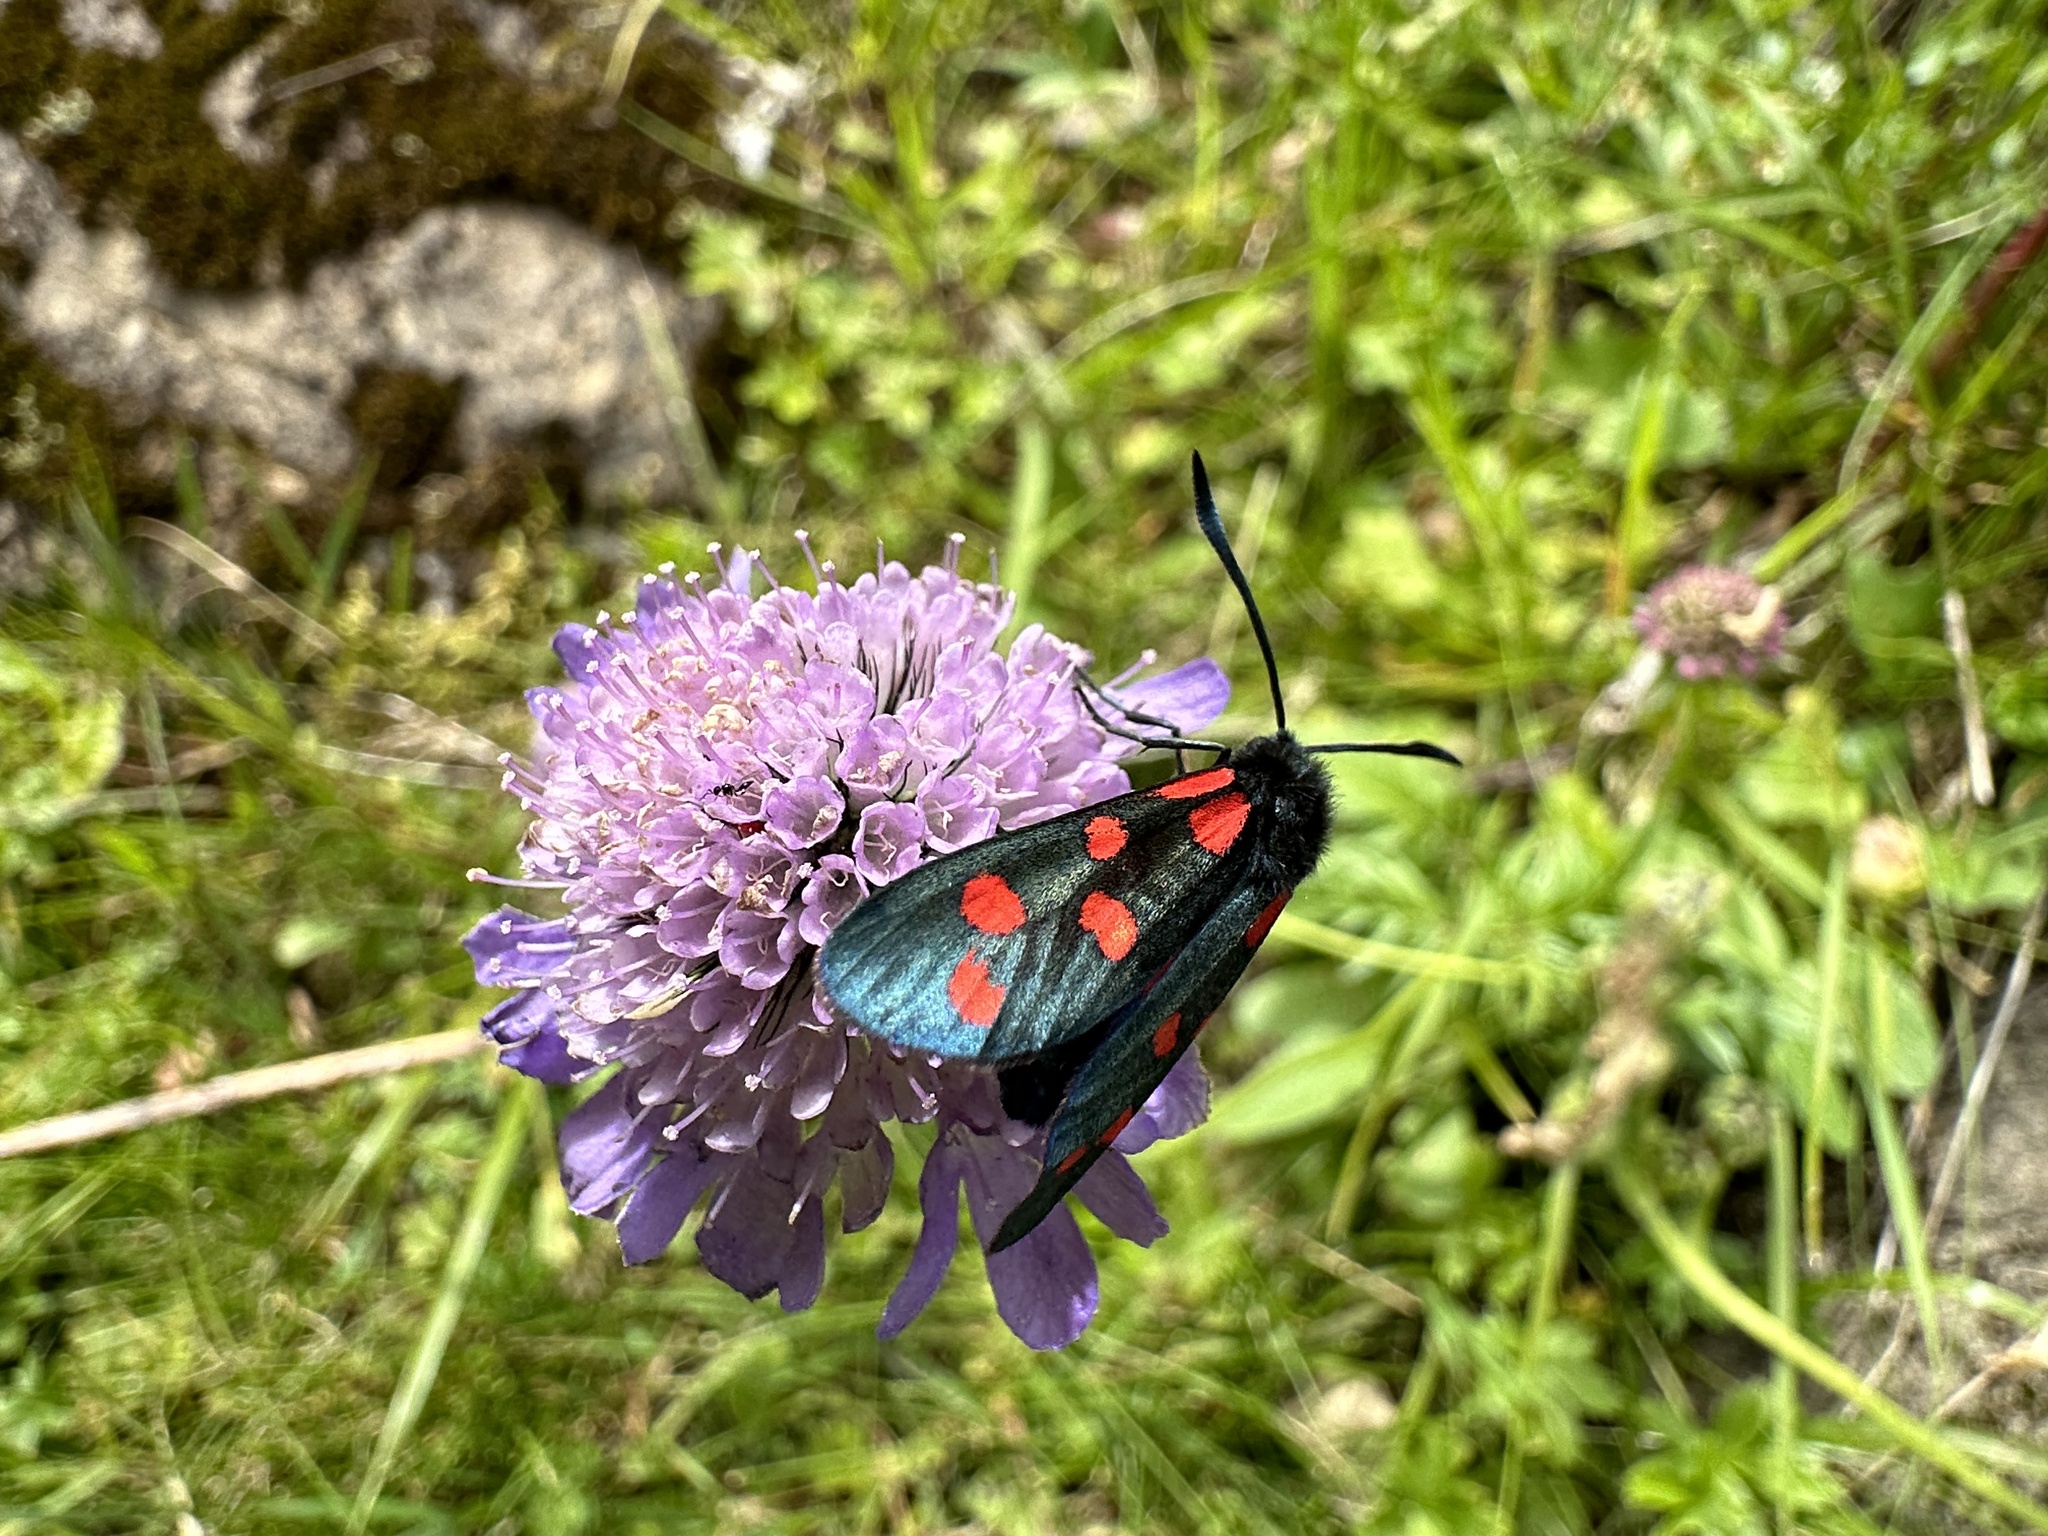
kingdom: Animalia
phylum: Arthropoda
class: Insecta
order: Lepidoptera
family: Zygaenidae
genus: Zygaena
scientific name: Zygaena transalpina
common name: Southern six spot burnet
